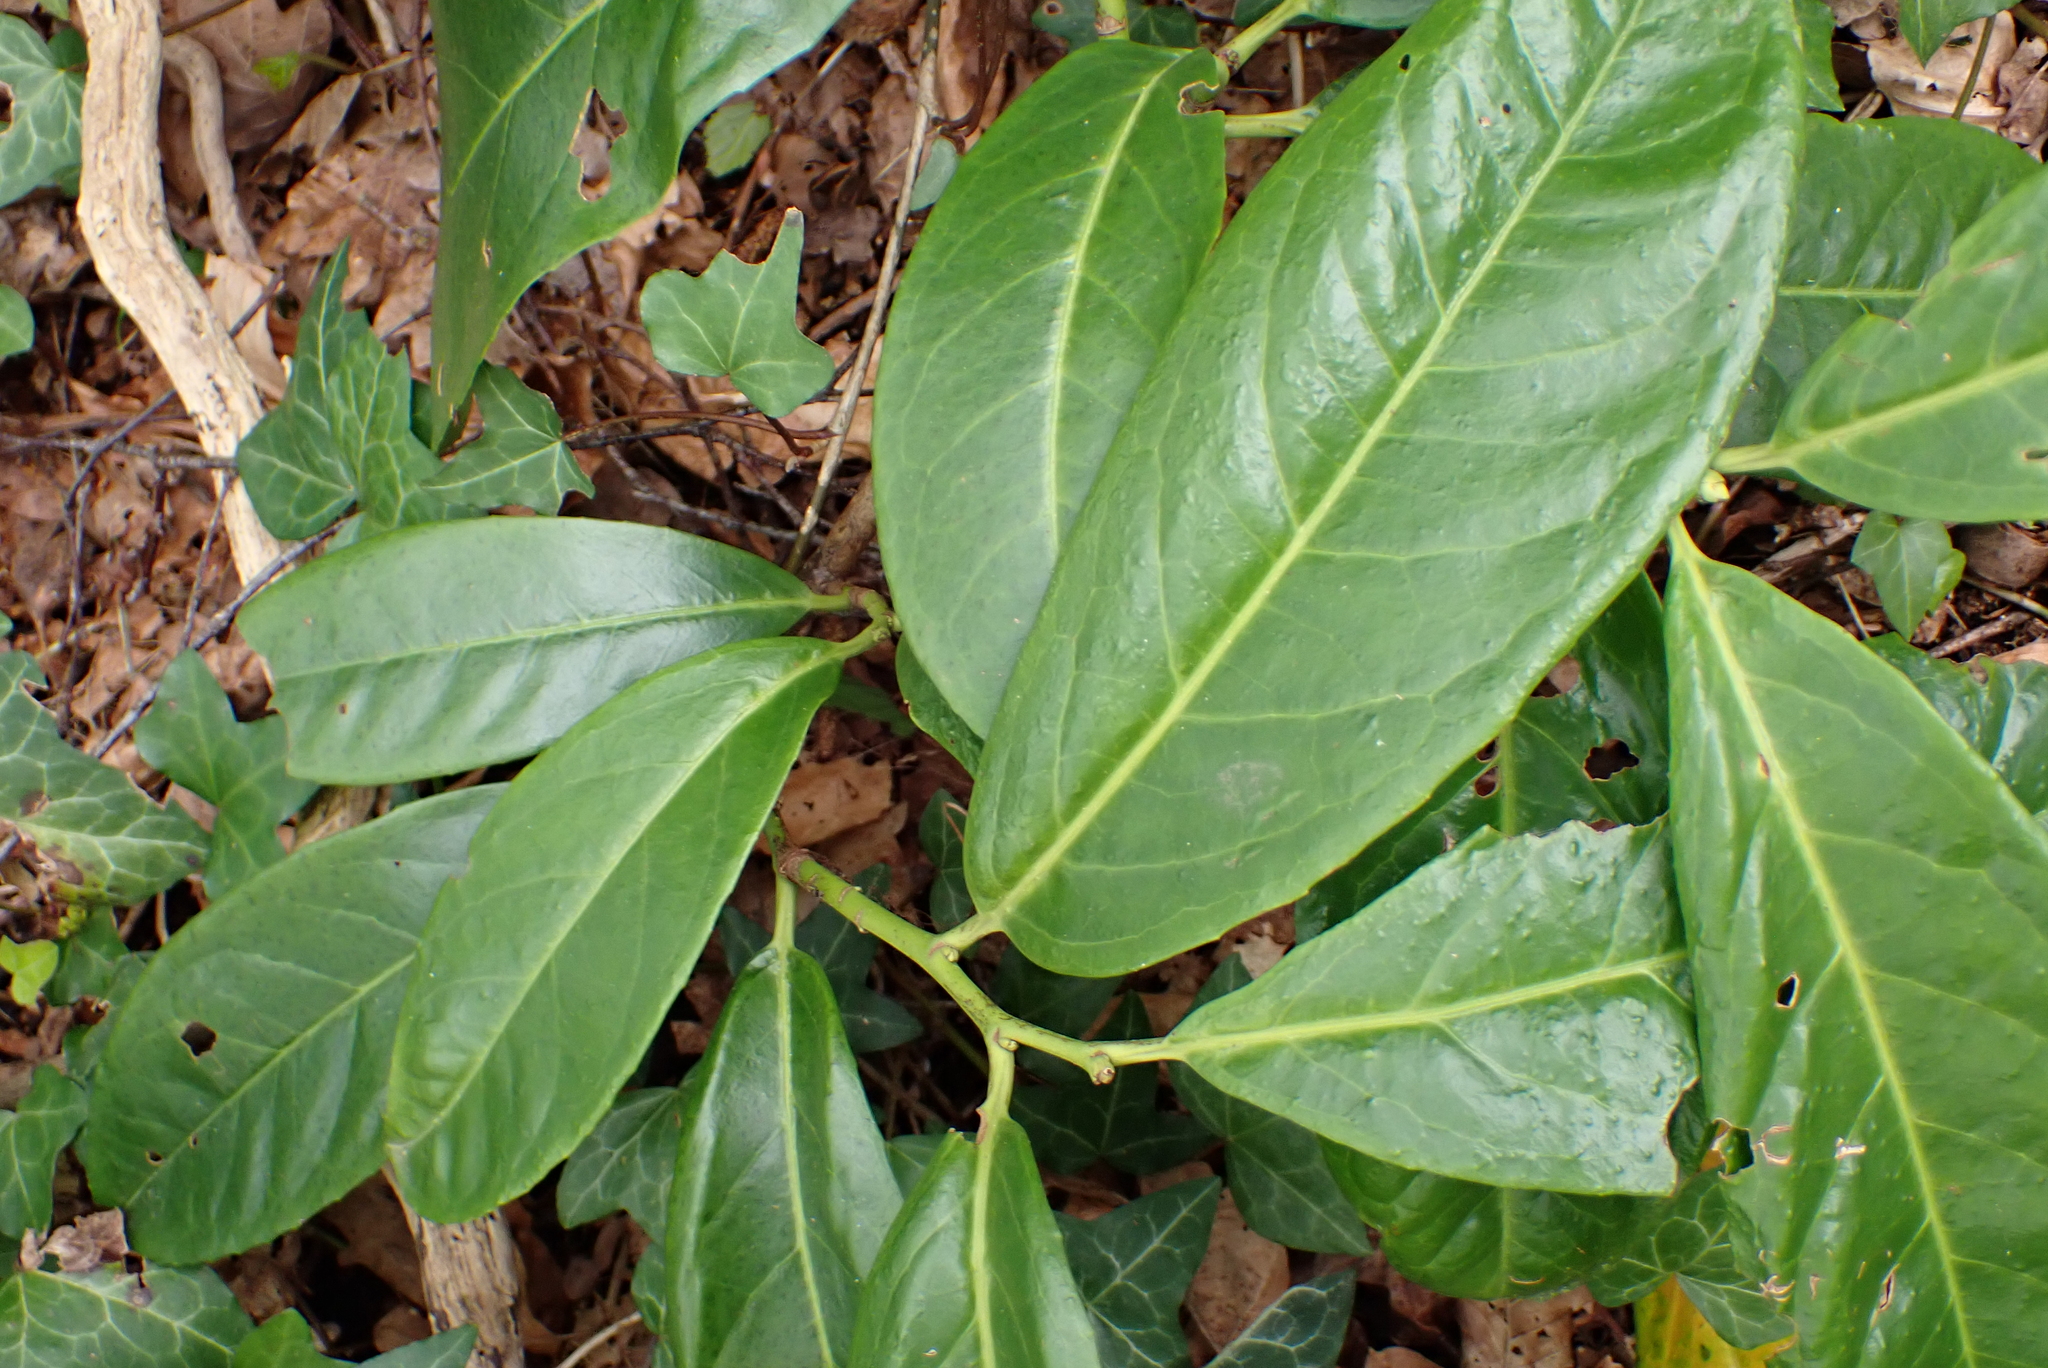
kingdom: Plantae
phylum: Tracheophyta
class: Magnoliopsida
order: Rosales
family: Rosaceae
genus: Prunus
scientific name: Prunus laurocerasus
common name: Cherry laurel
